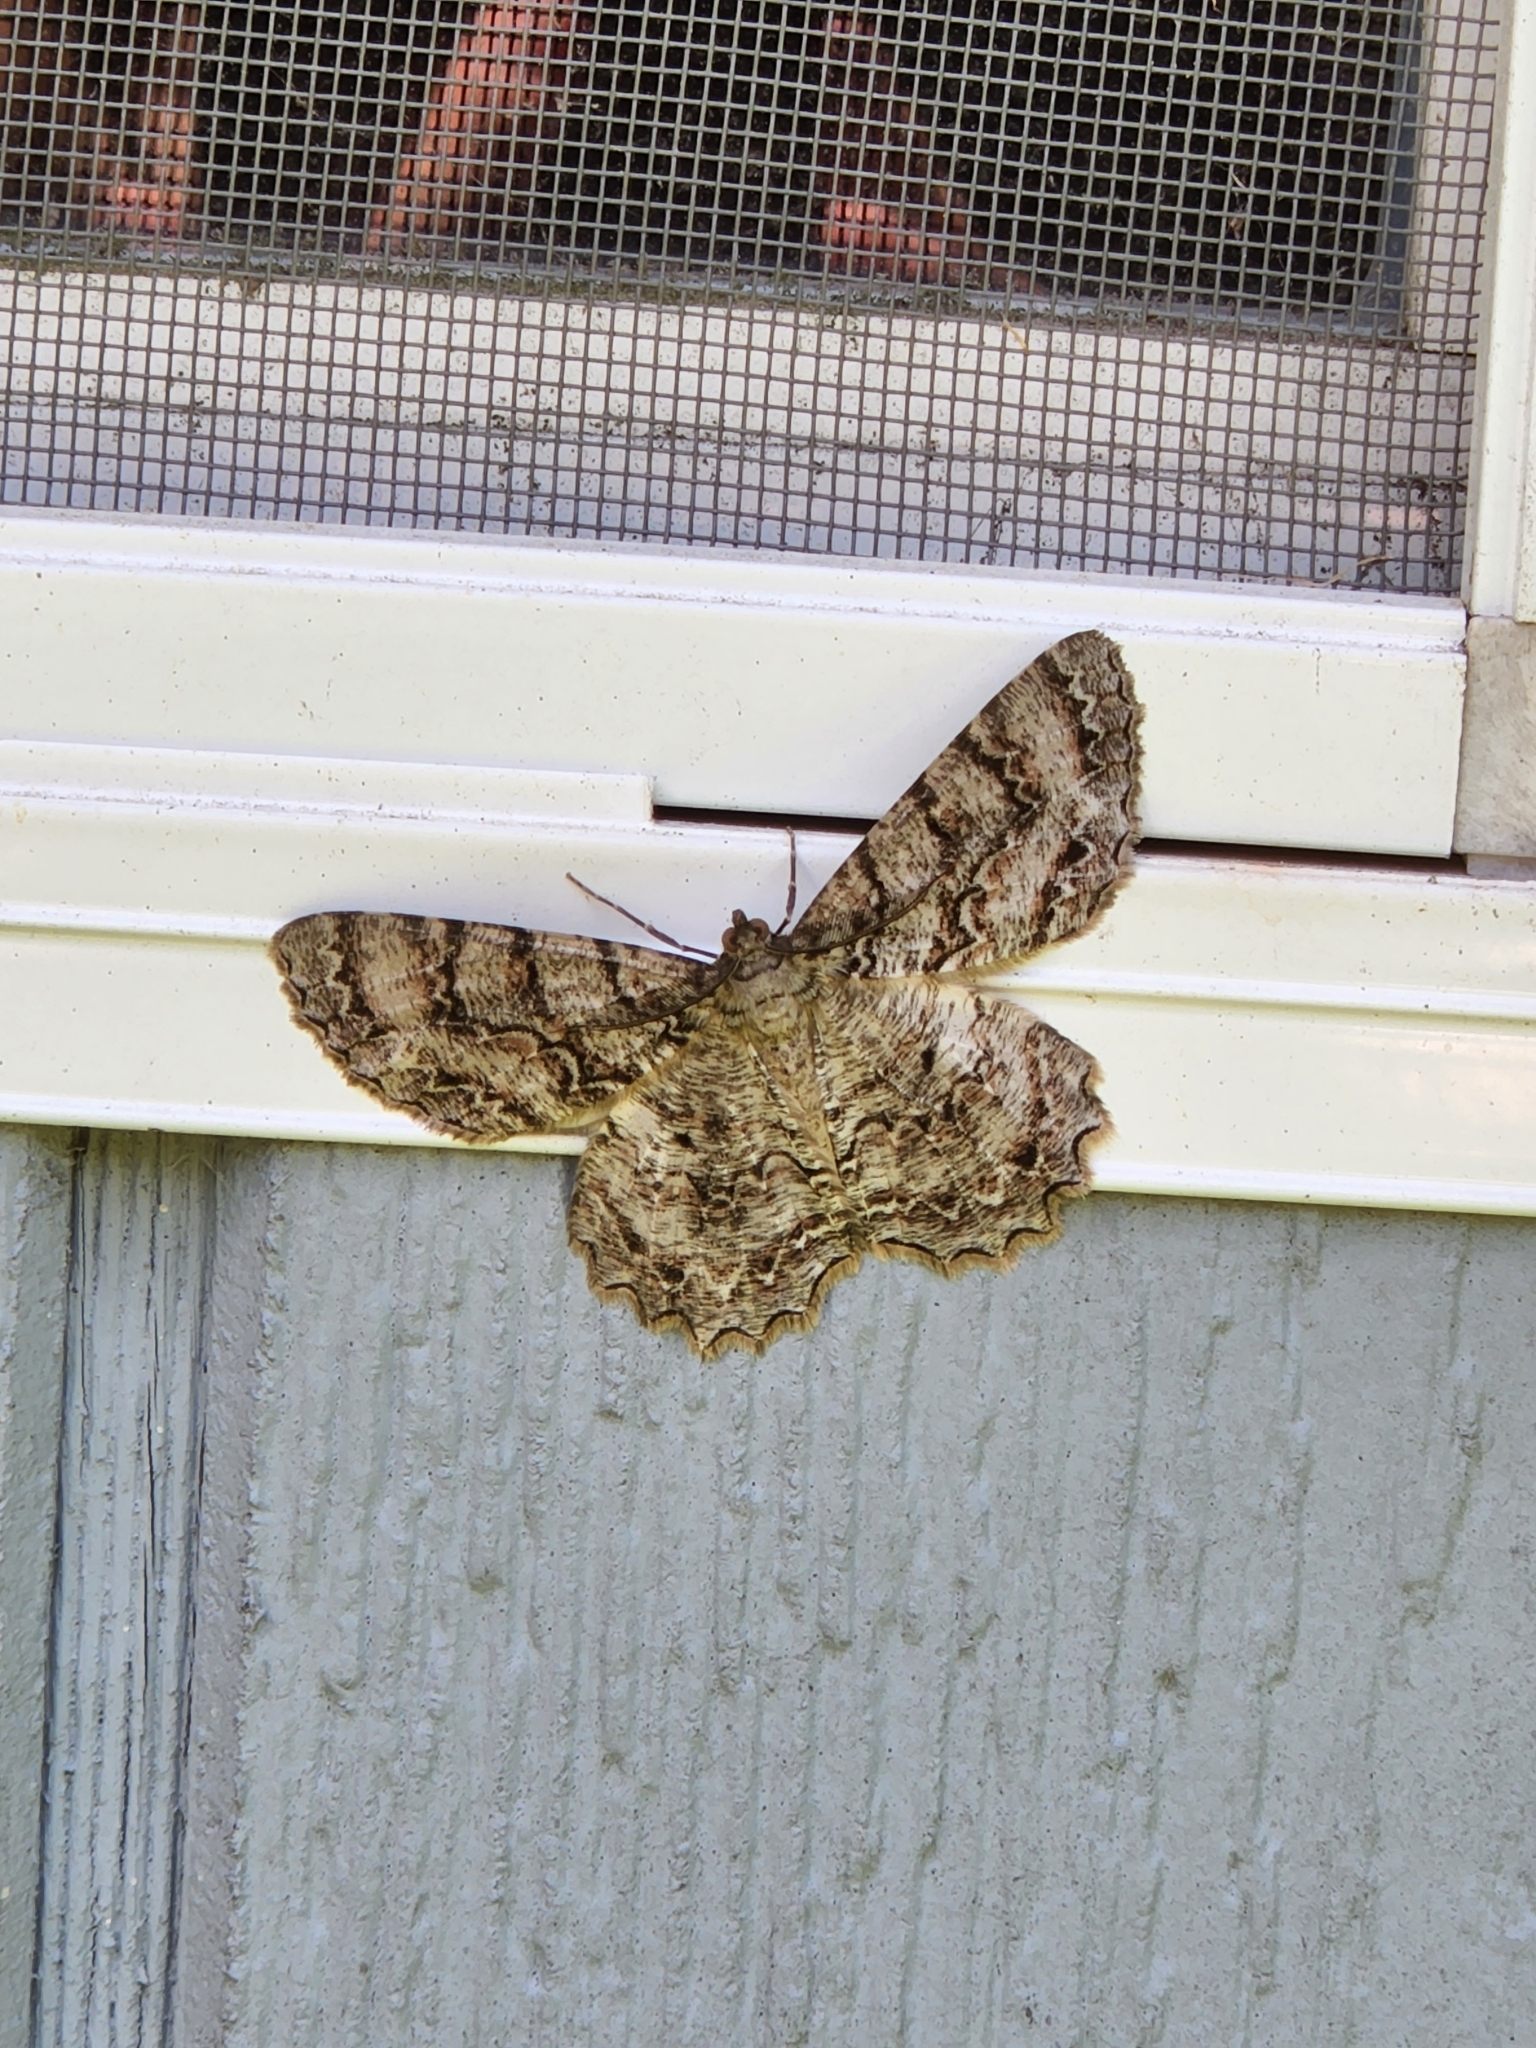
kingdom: Animalia
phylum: Arthropoda
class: Insecta
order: Lepidoptera
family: Geometridae
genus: Epimecis
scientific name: Epimecis hortaria
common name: Tulip-tree beauty
